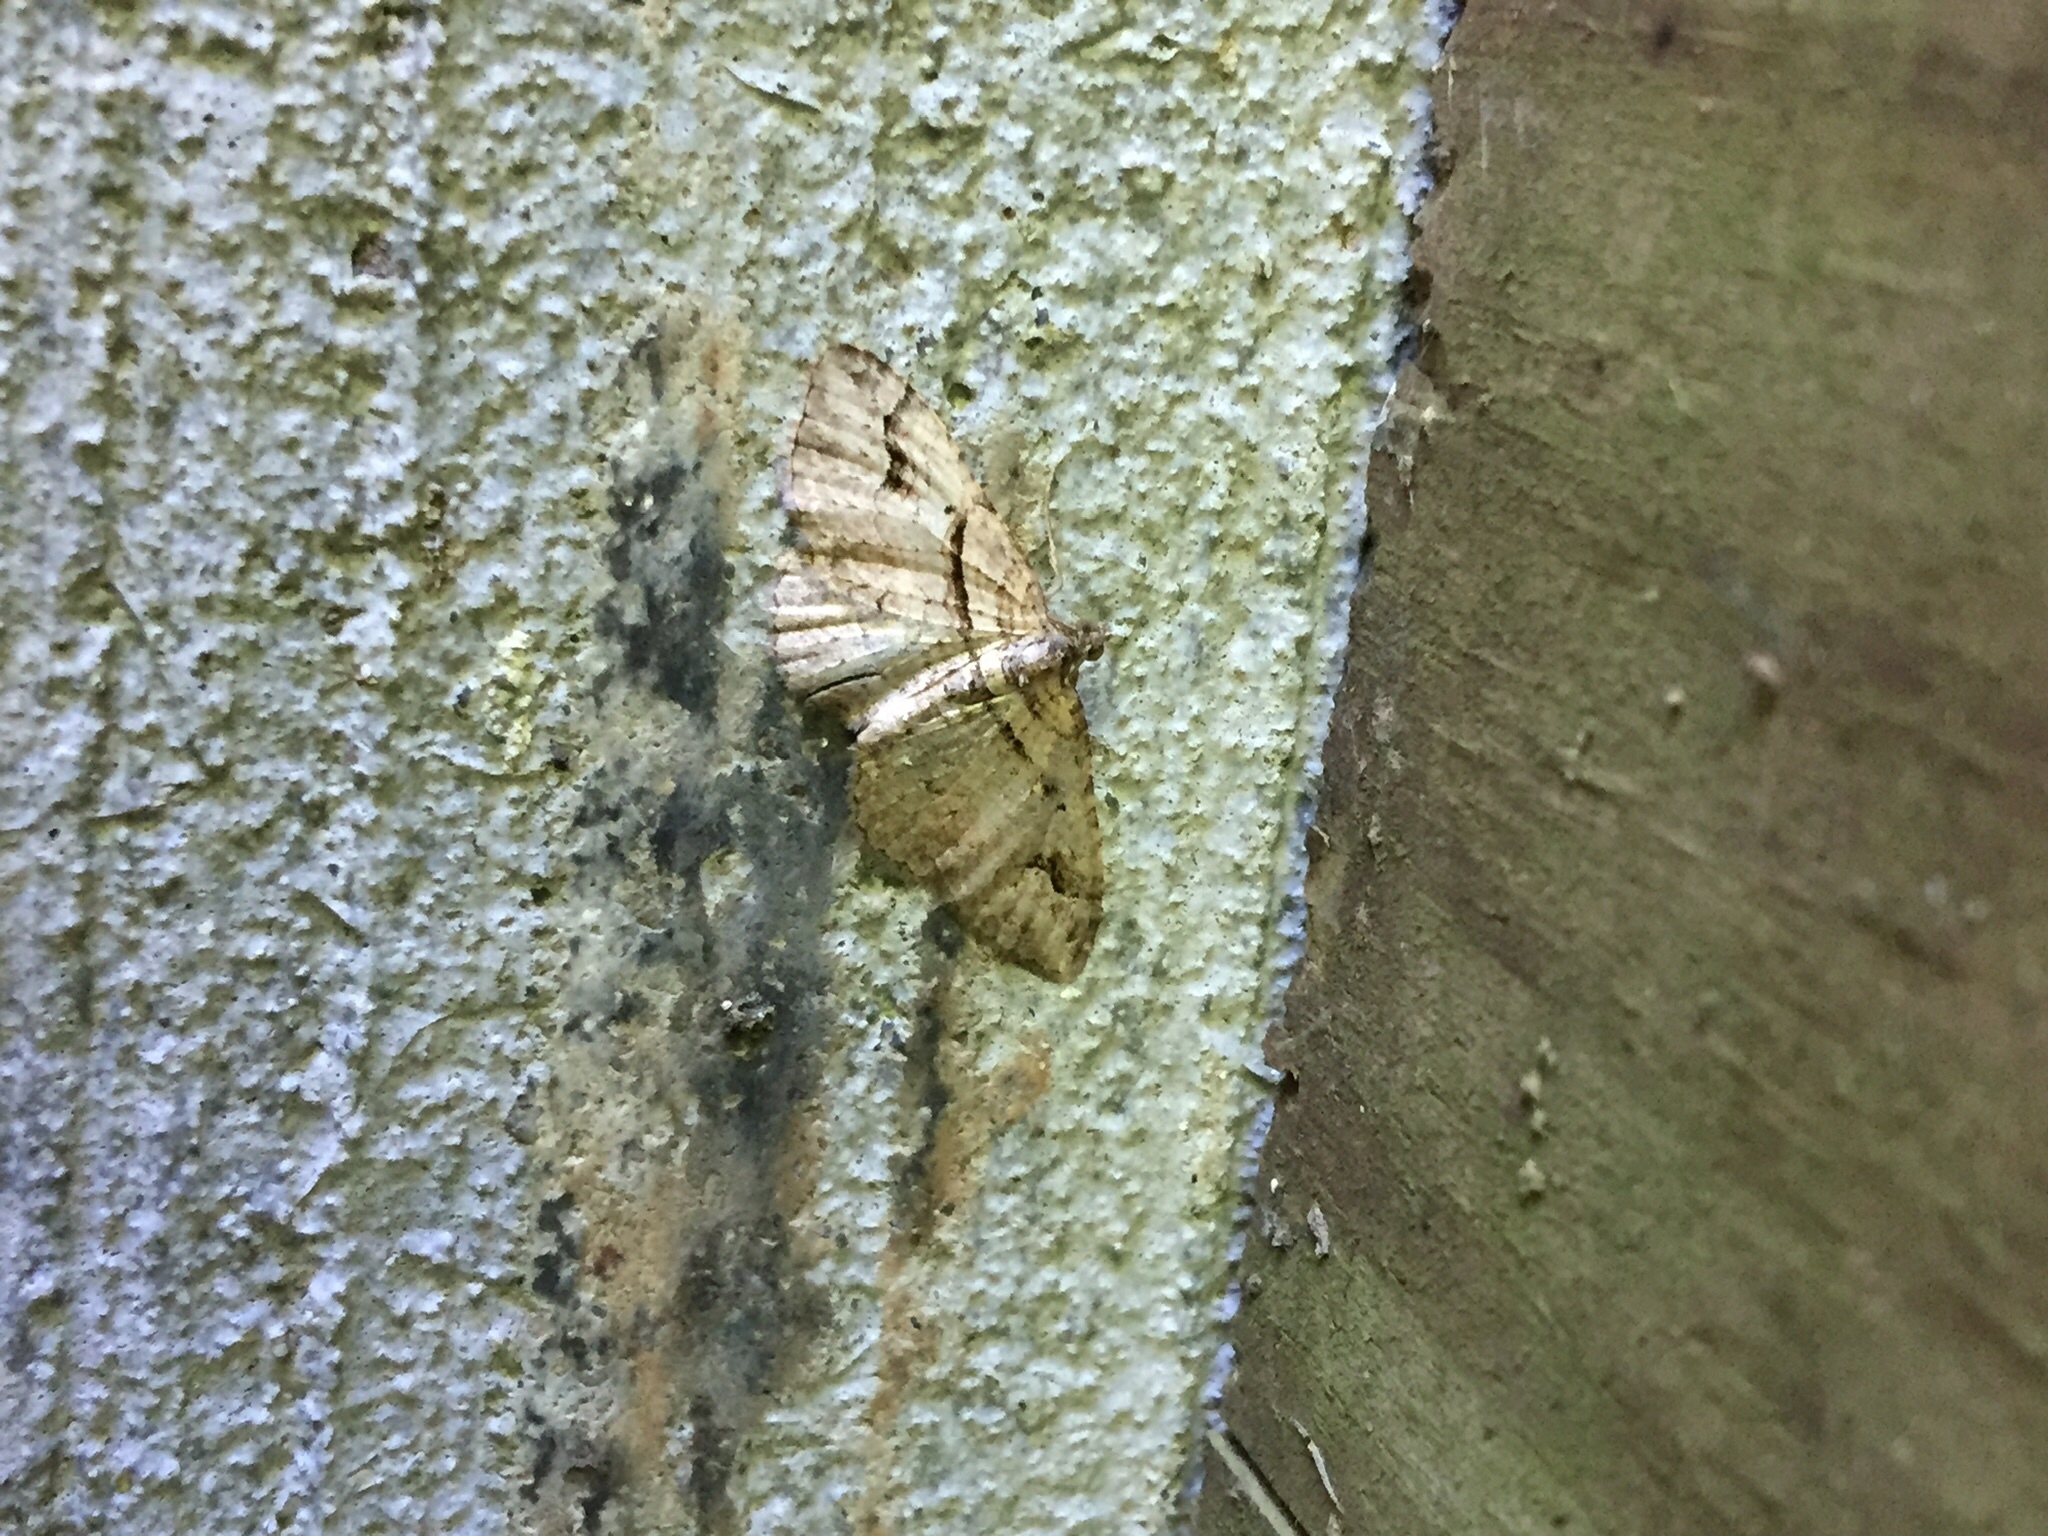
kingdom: Animalia
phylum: Arthropoda
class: Insecta
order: Lepidoptera
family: Geometridae
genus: Costaconvexa
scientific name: Costaconvexa centrostrigaria
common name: Bent-line carpet
